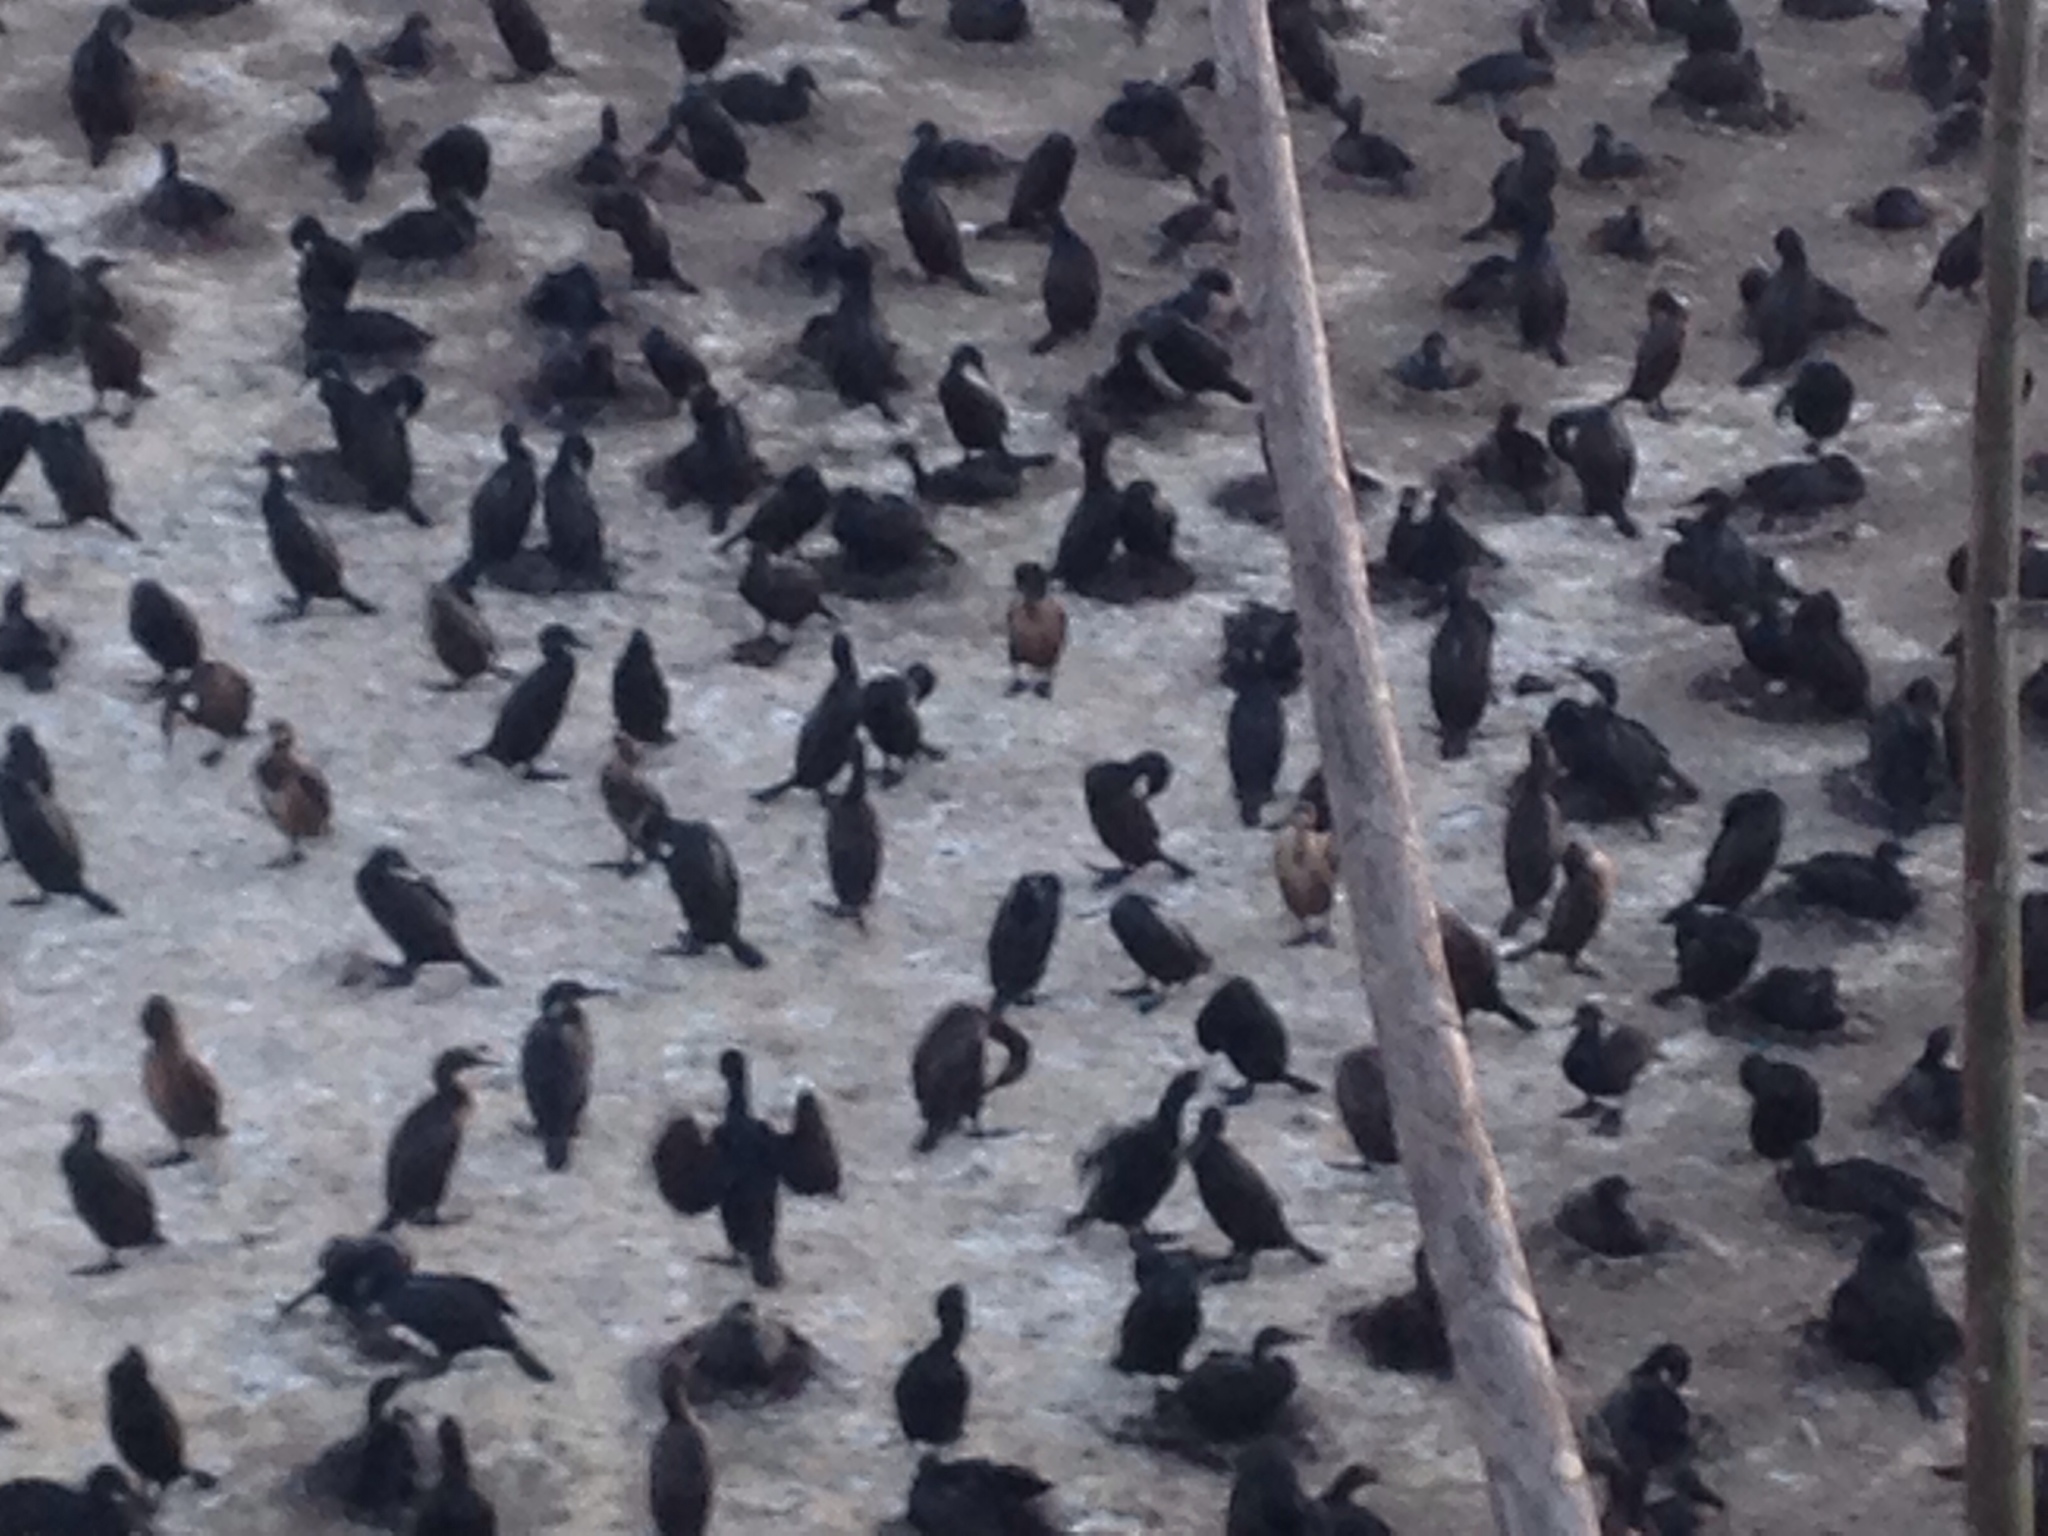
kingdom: Animalia
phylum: Chordata
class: Aves
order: Suliformes
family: Phalacrocoracidae
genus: Urile
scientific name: Urile penicillatus
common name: Brandt's cormorant
